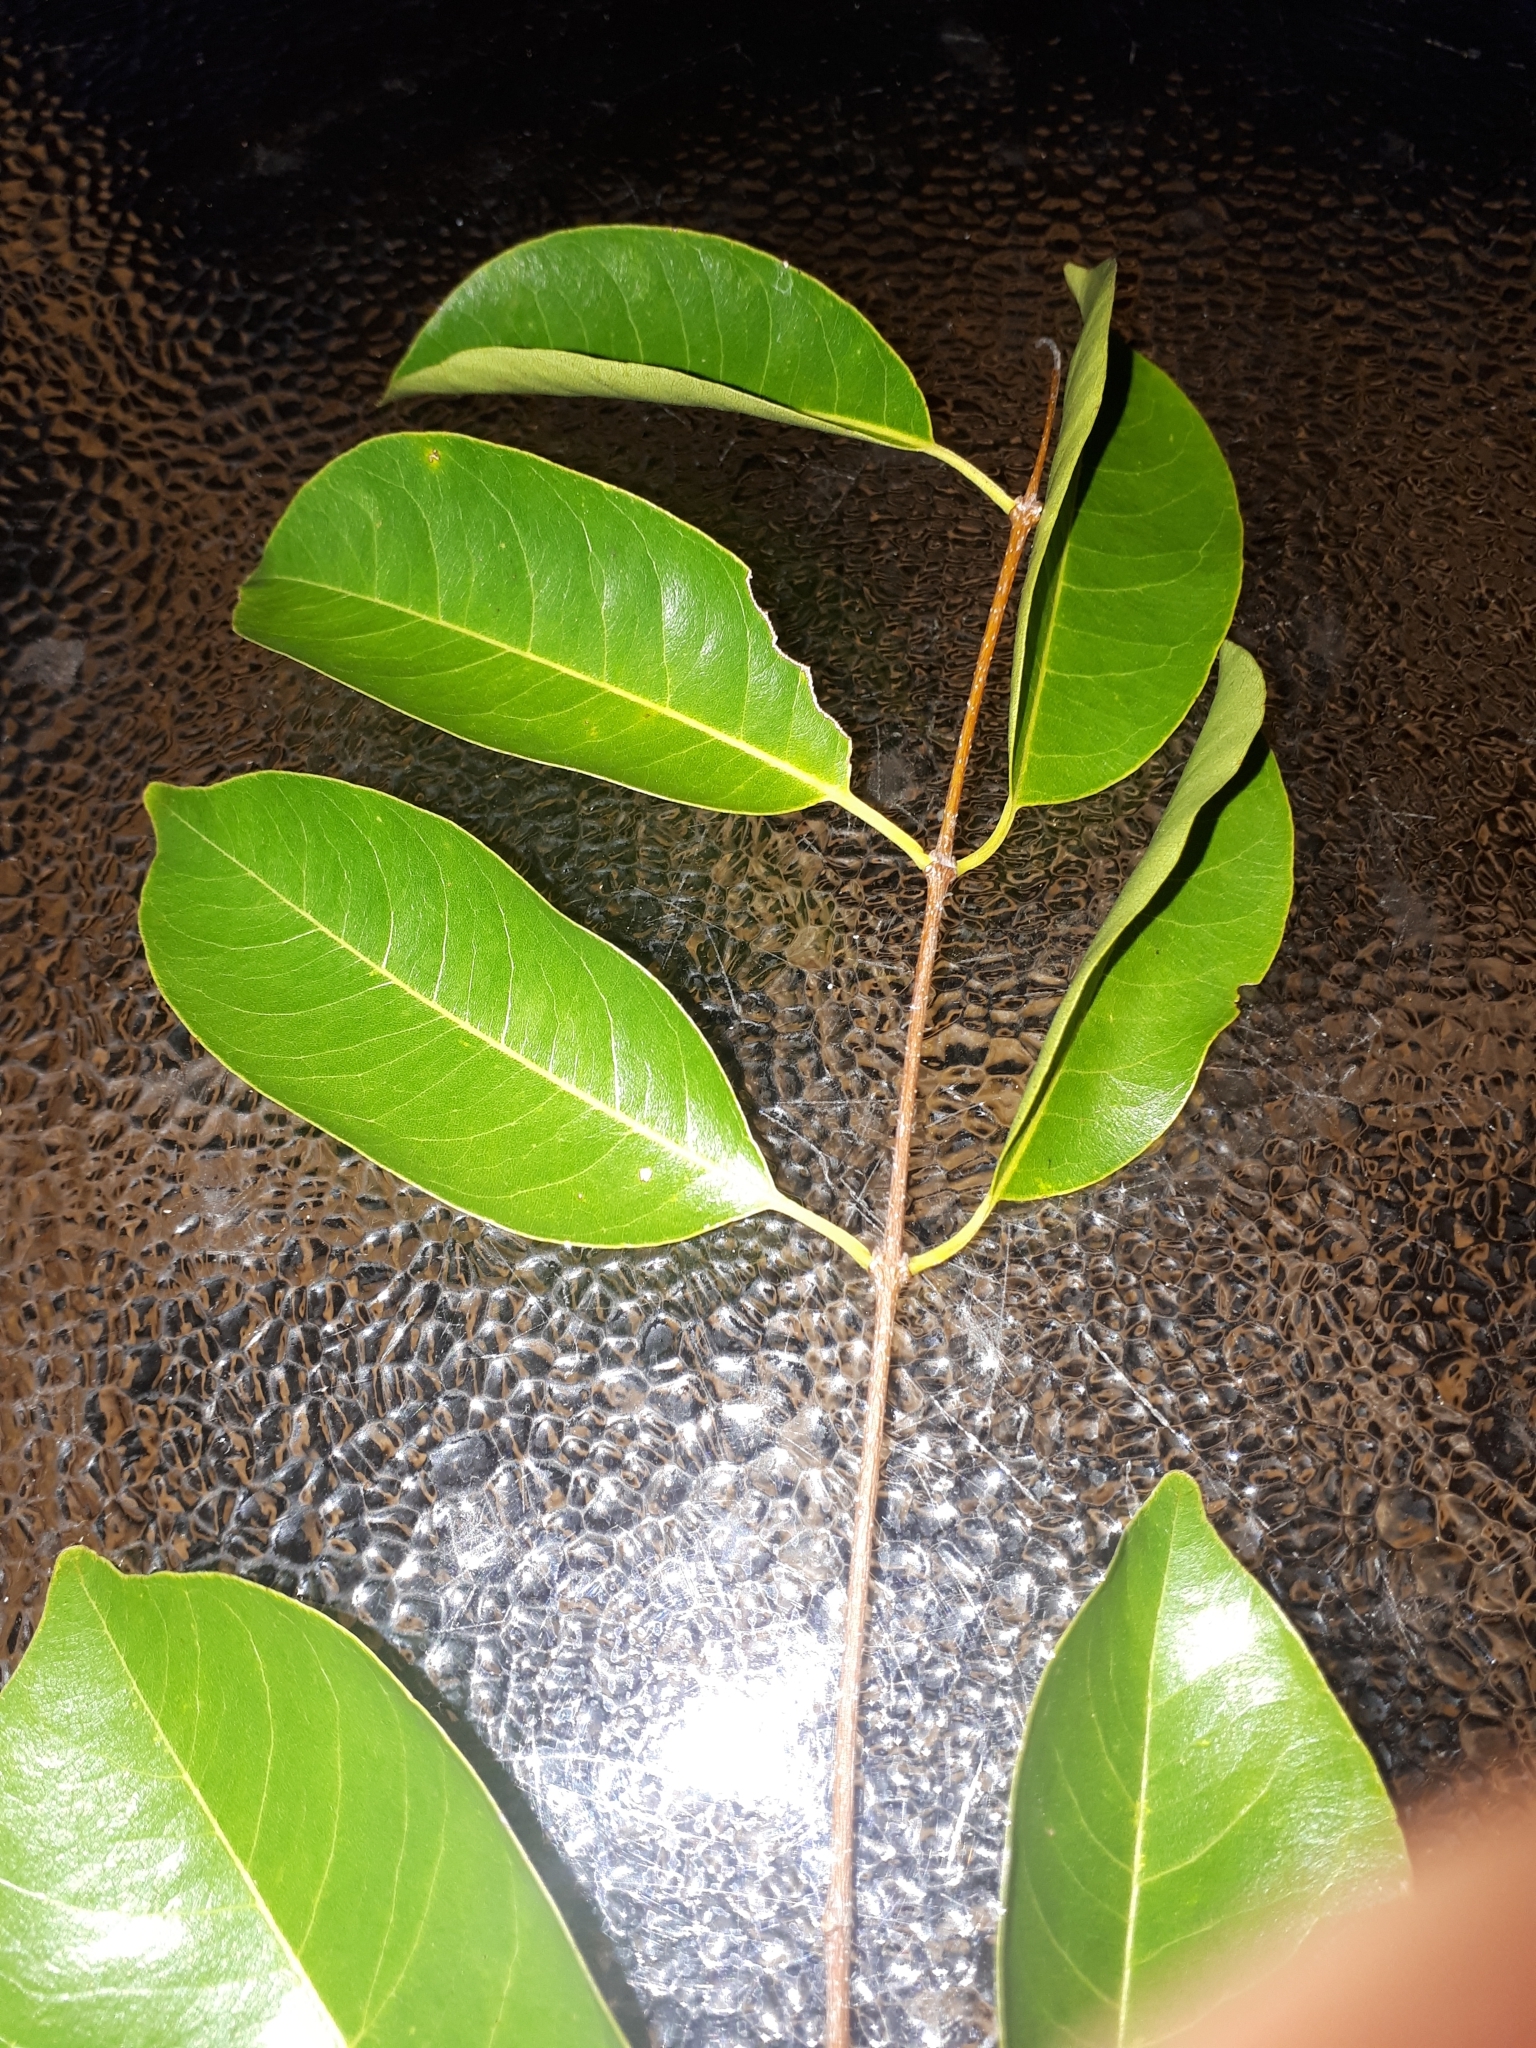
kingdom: Plantae
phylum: Tracheophyta
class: Magnoliopsida
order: Gentianales
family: Apocynaceae
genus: Diplorhynchus
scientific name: Diplorhynchus condylocarpon
